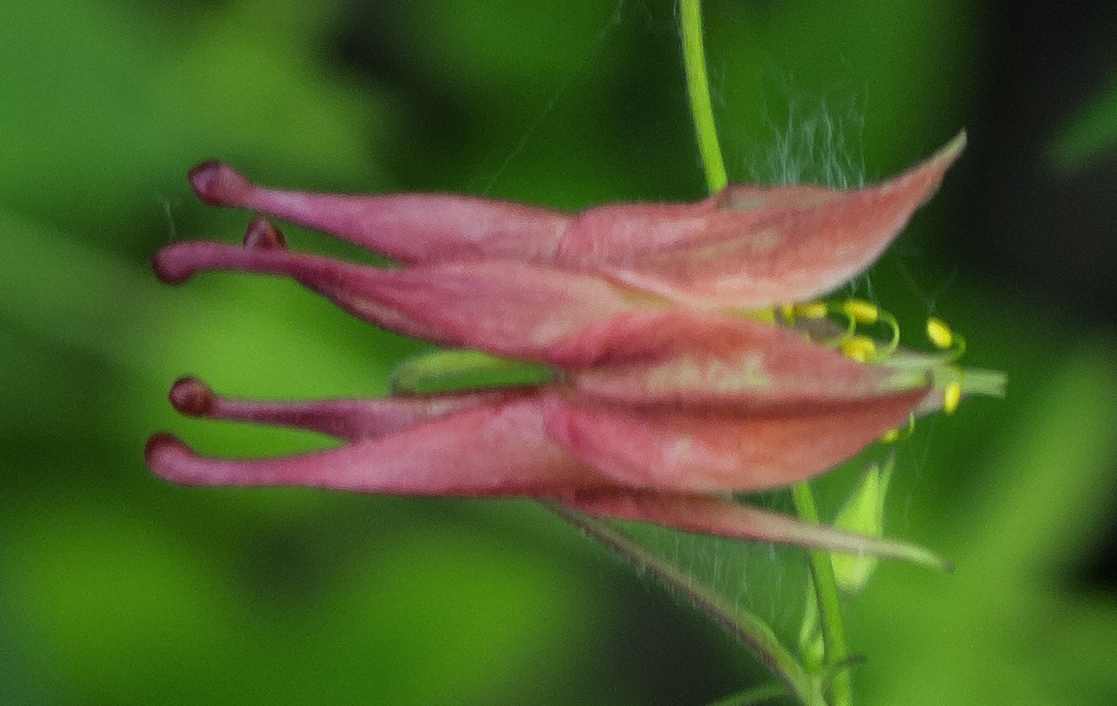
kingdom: Plantae
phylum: Tracheophyta
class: Magnoliopsida
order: Ranunculales
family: Ranunculaceae
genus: Aquilegia
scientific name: Aquilegia canadensis
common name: American columbine
